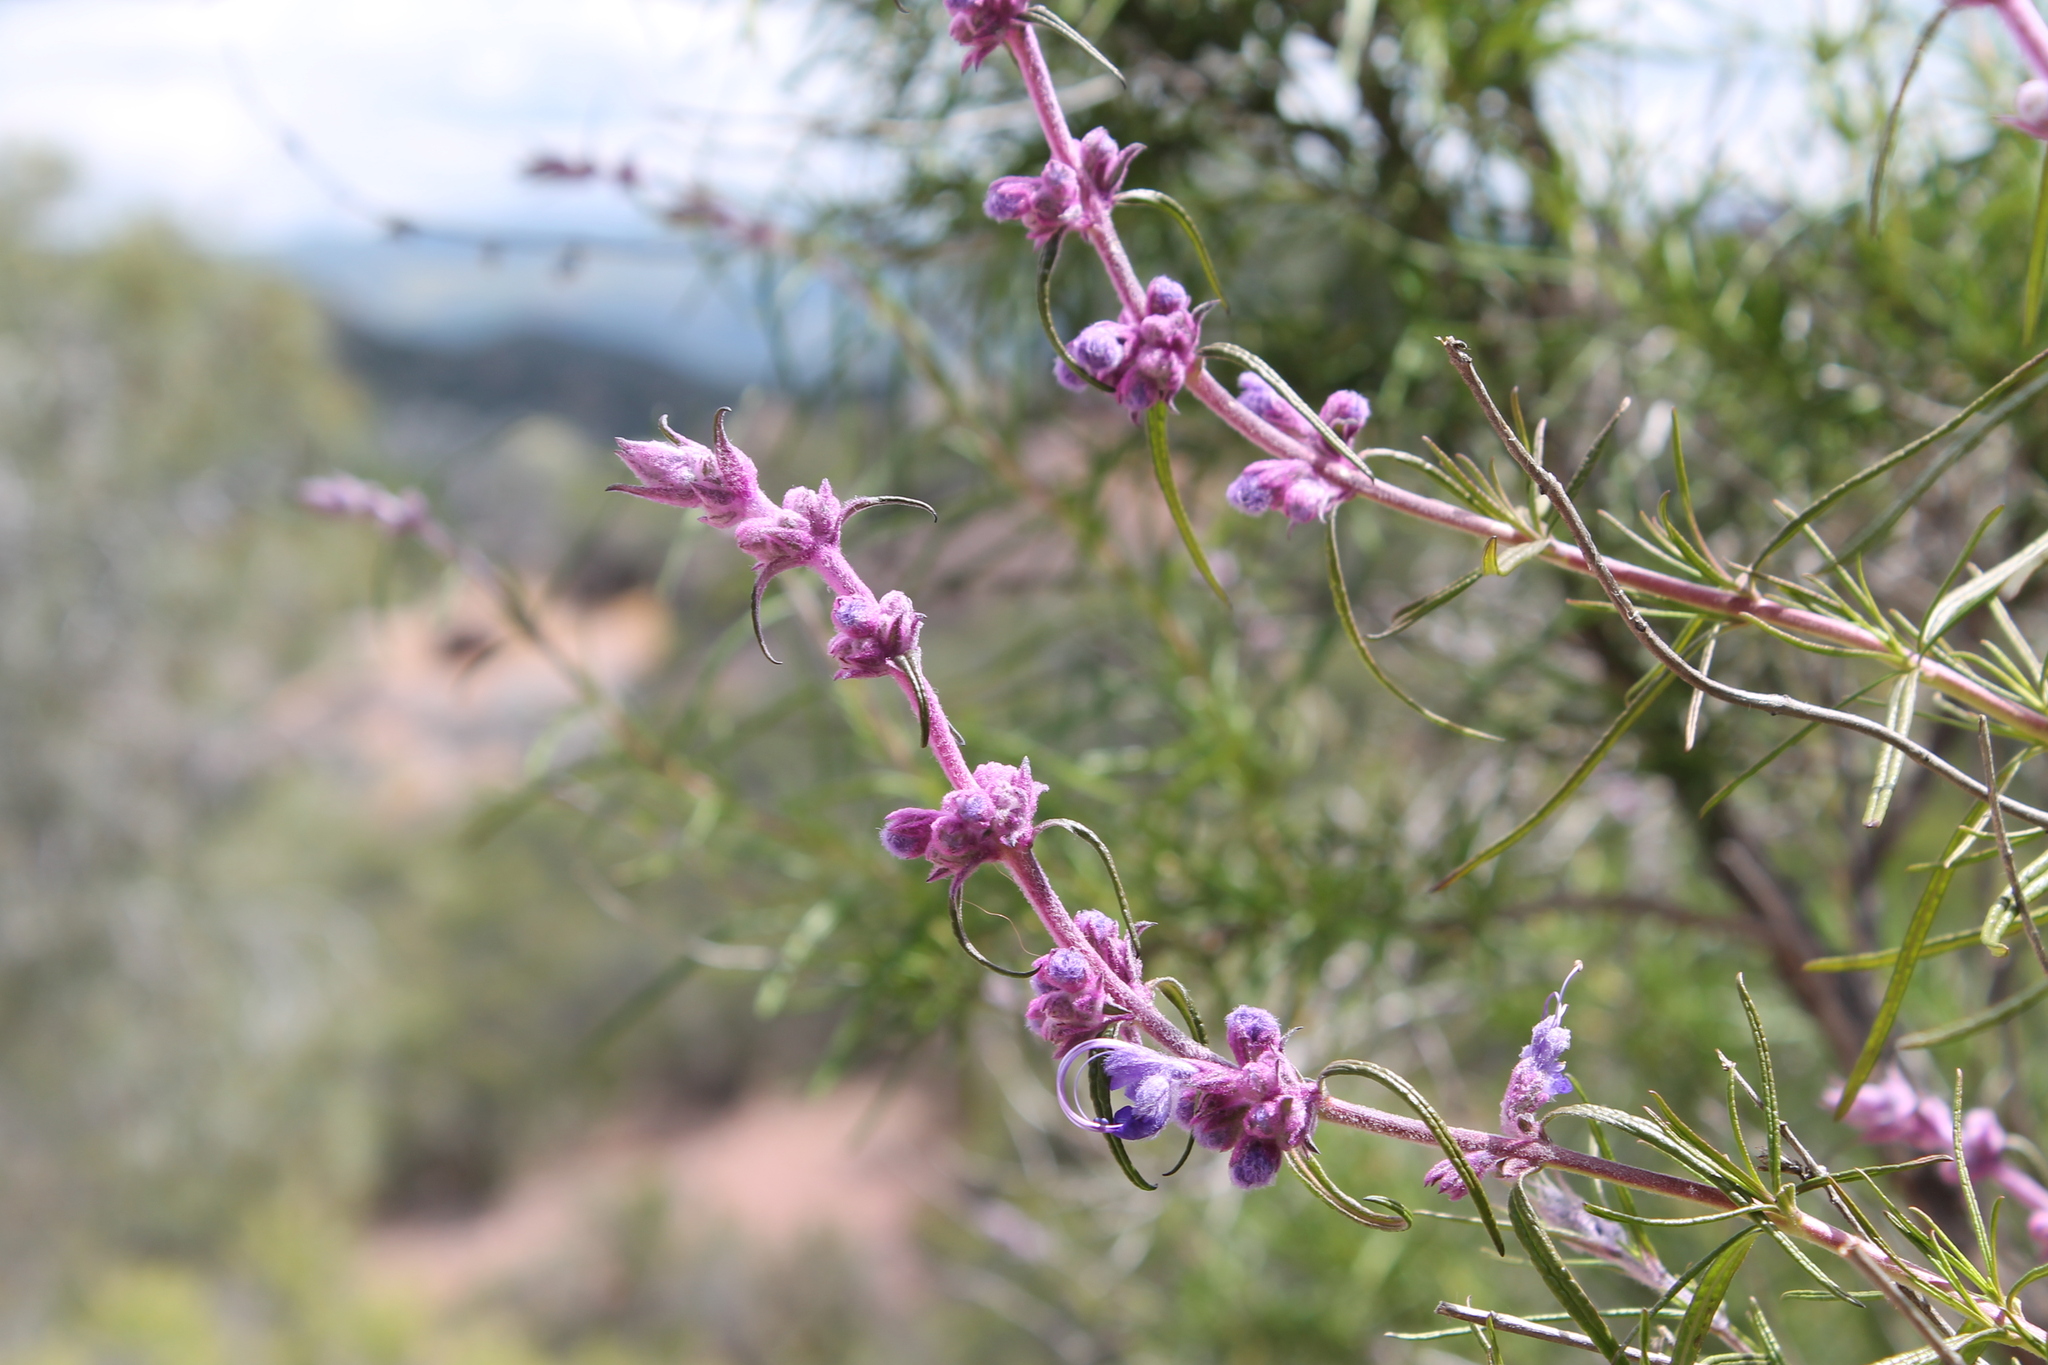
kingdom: Plantae
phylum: Tracheophyta
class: Magnoliopsida
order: Lamiales
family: Lamiaceae
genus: Trichostema
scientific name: Trichostema lanatum
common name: Woolly bluecurls
